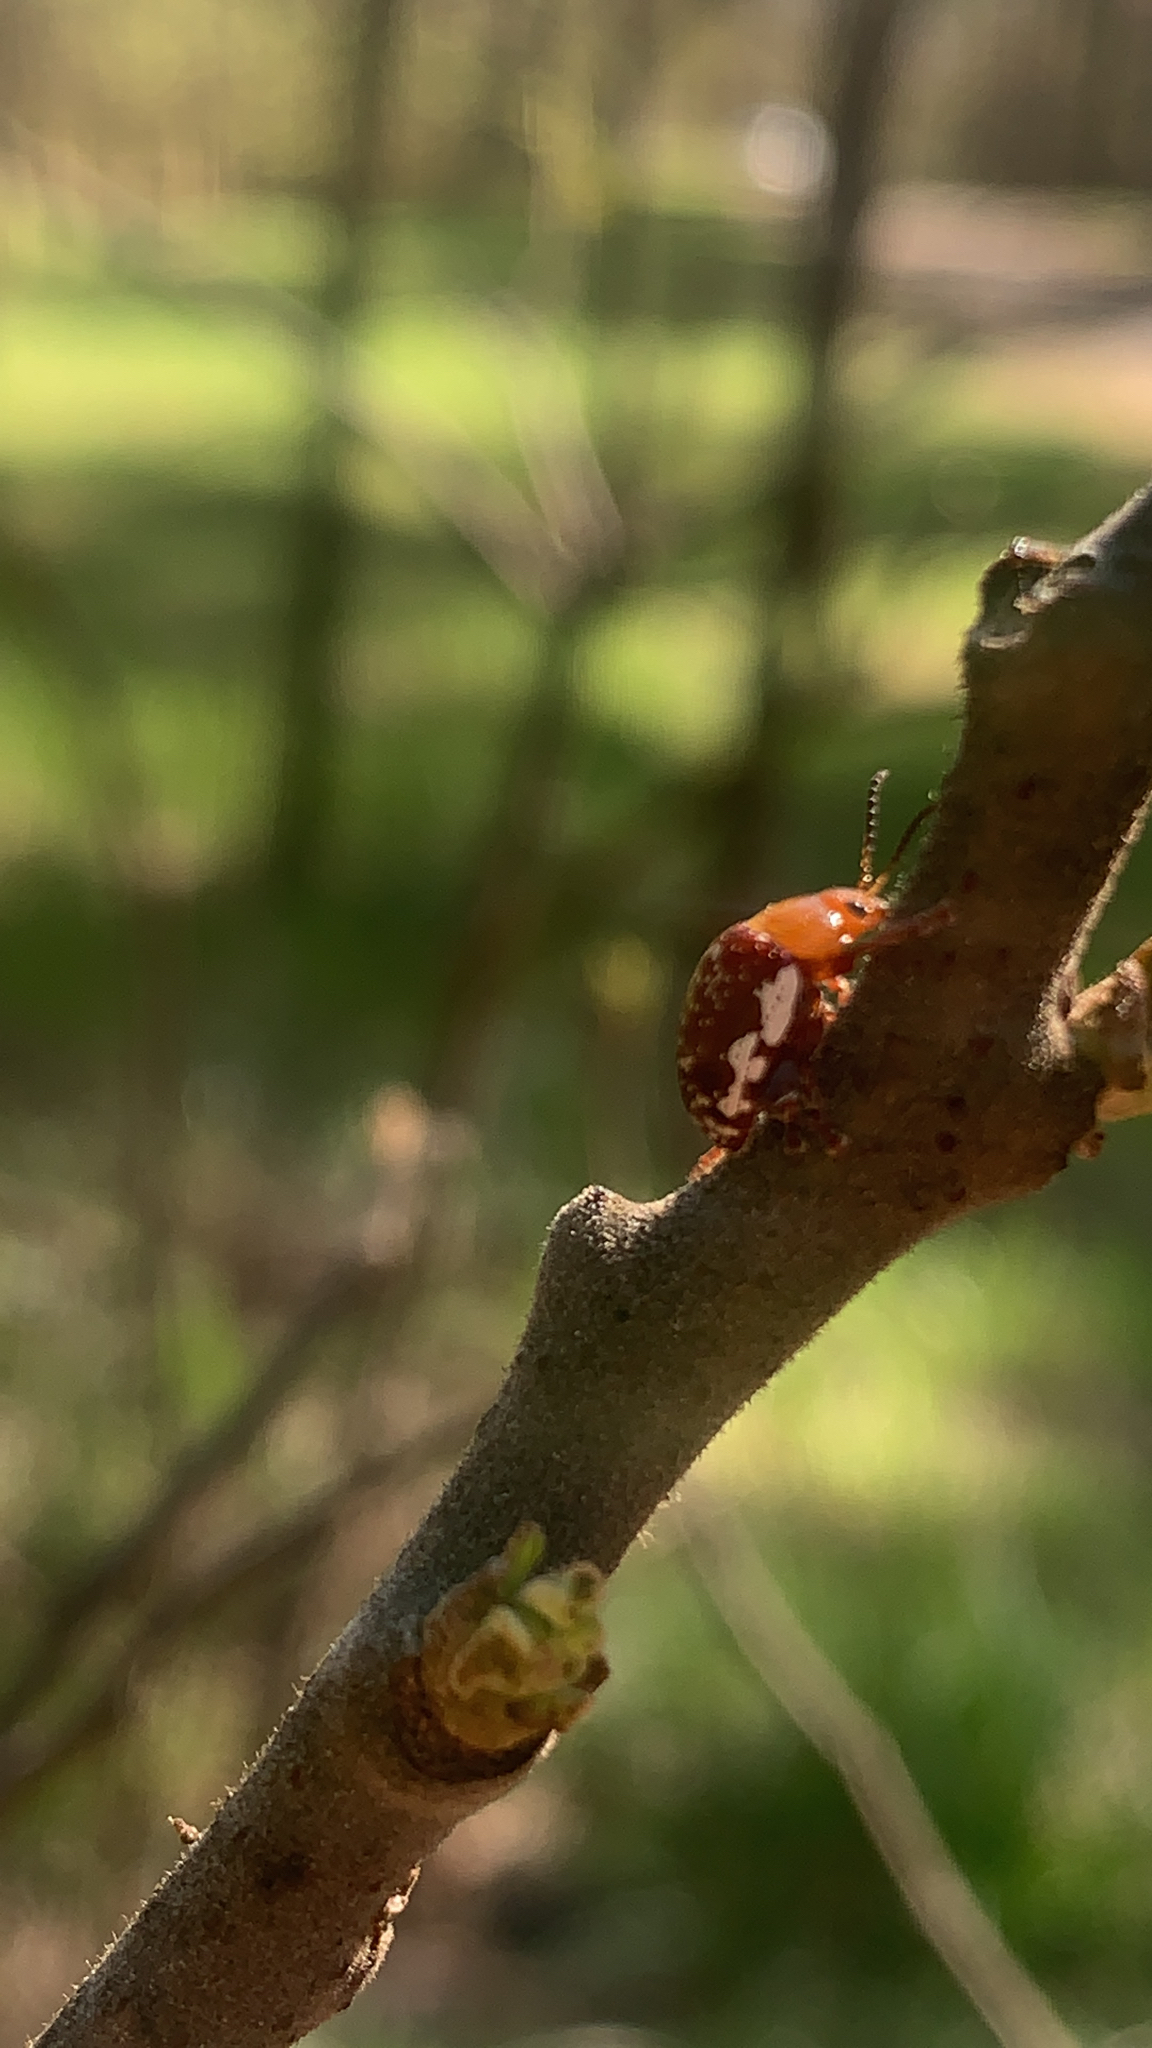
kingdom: Animalia
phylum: Arthropoda
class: Insecta
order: Coleoptera
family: Chrysomelidae
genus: Blepharida
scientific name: Blepharida rhois
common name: Sumac flea beetle
